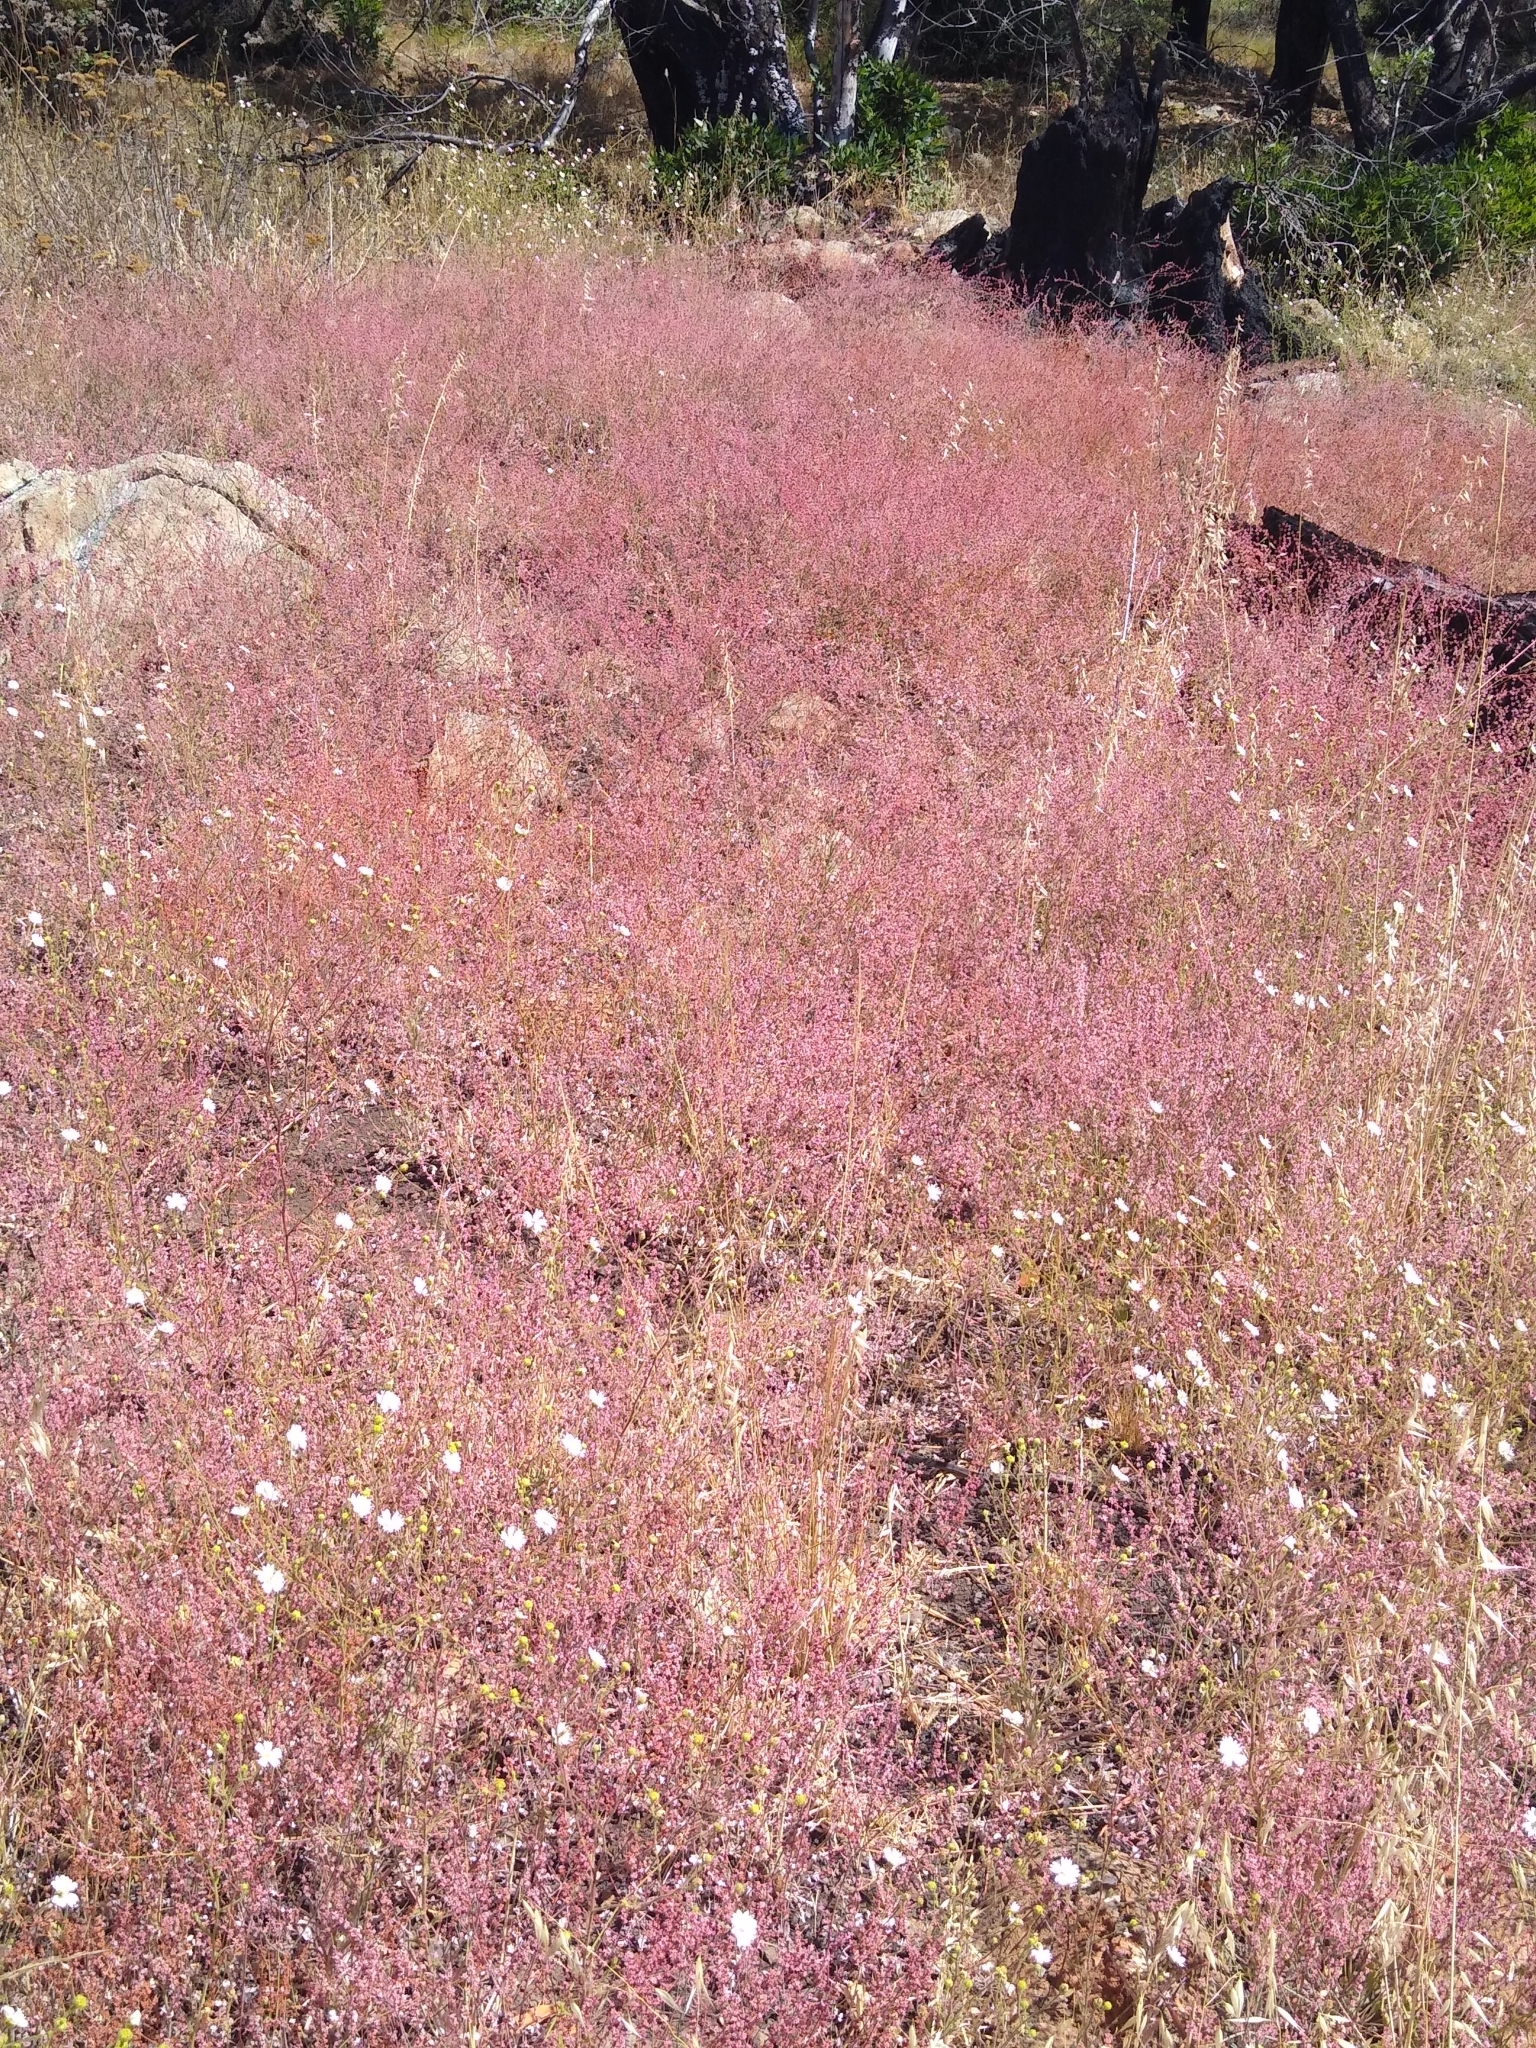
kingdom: Plantae
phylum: Tracheophyta
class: Magnoliopsida
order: Caryophyllales
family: Polygonaceae
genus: Eriogonum
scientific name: Eriogonum luteolum
